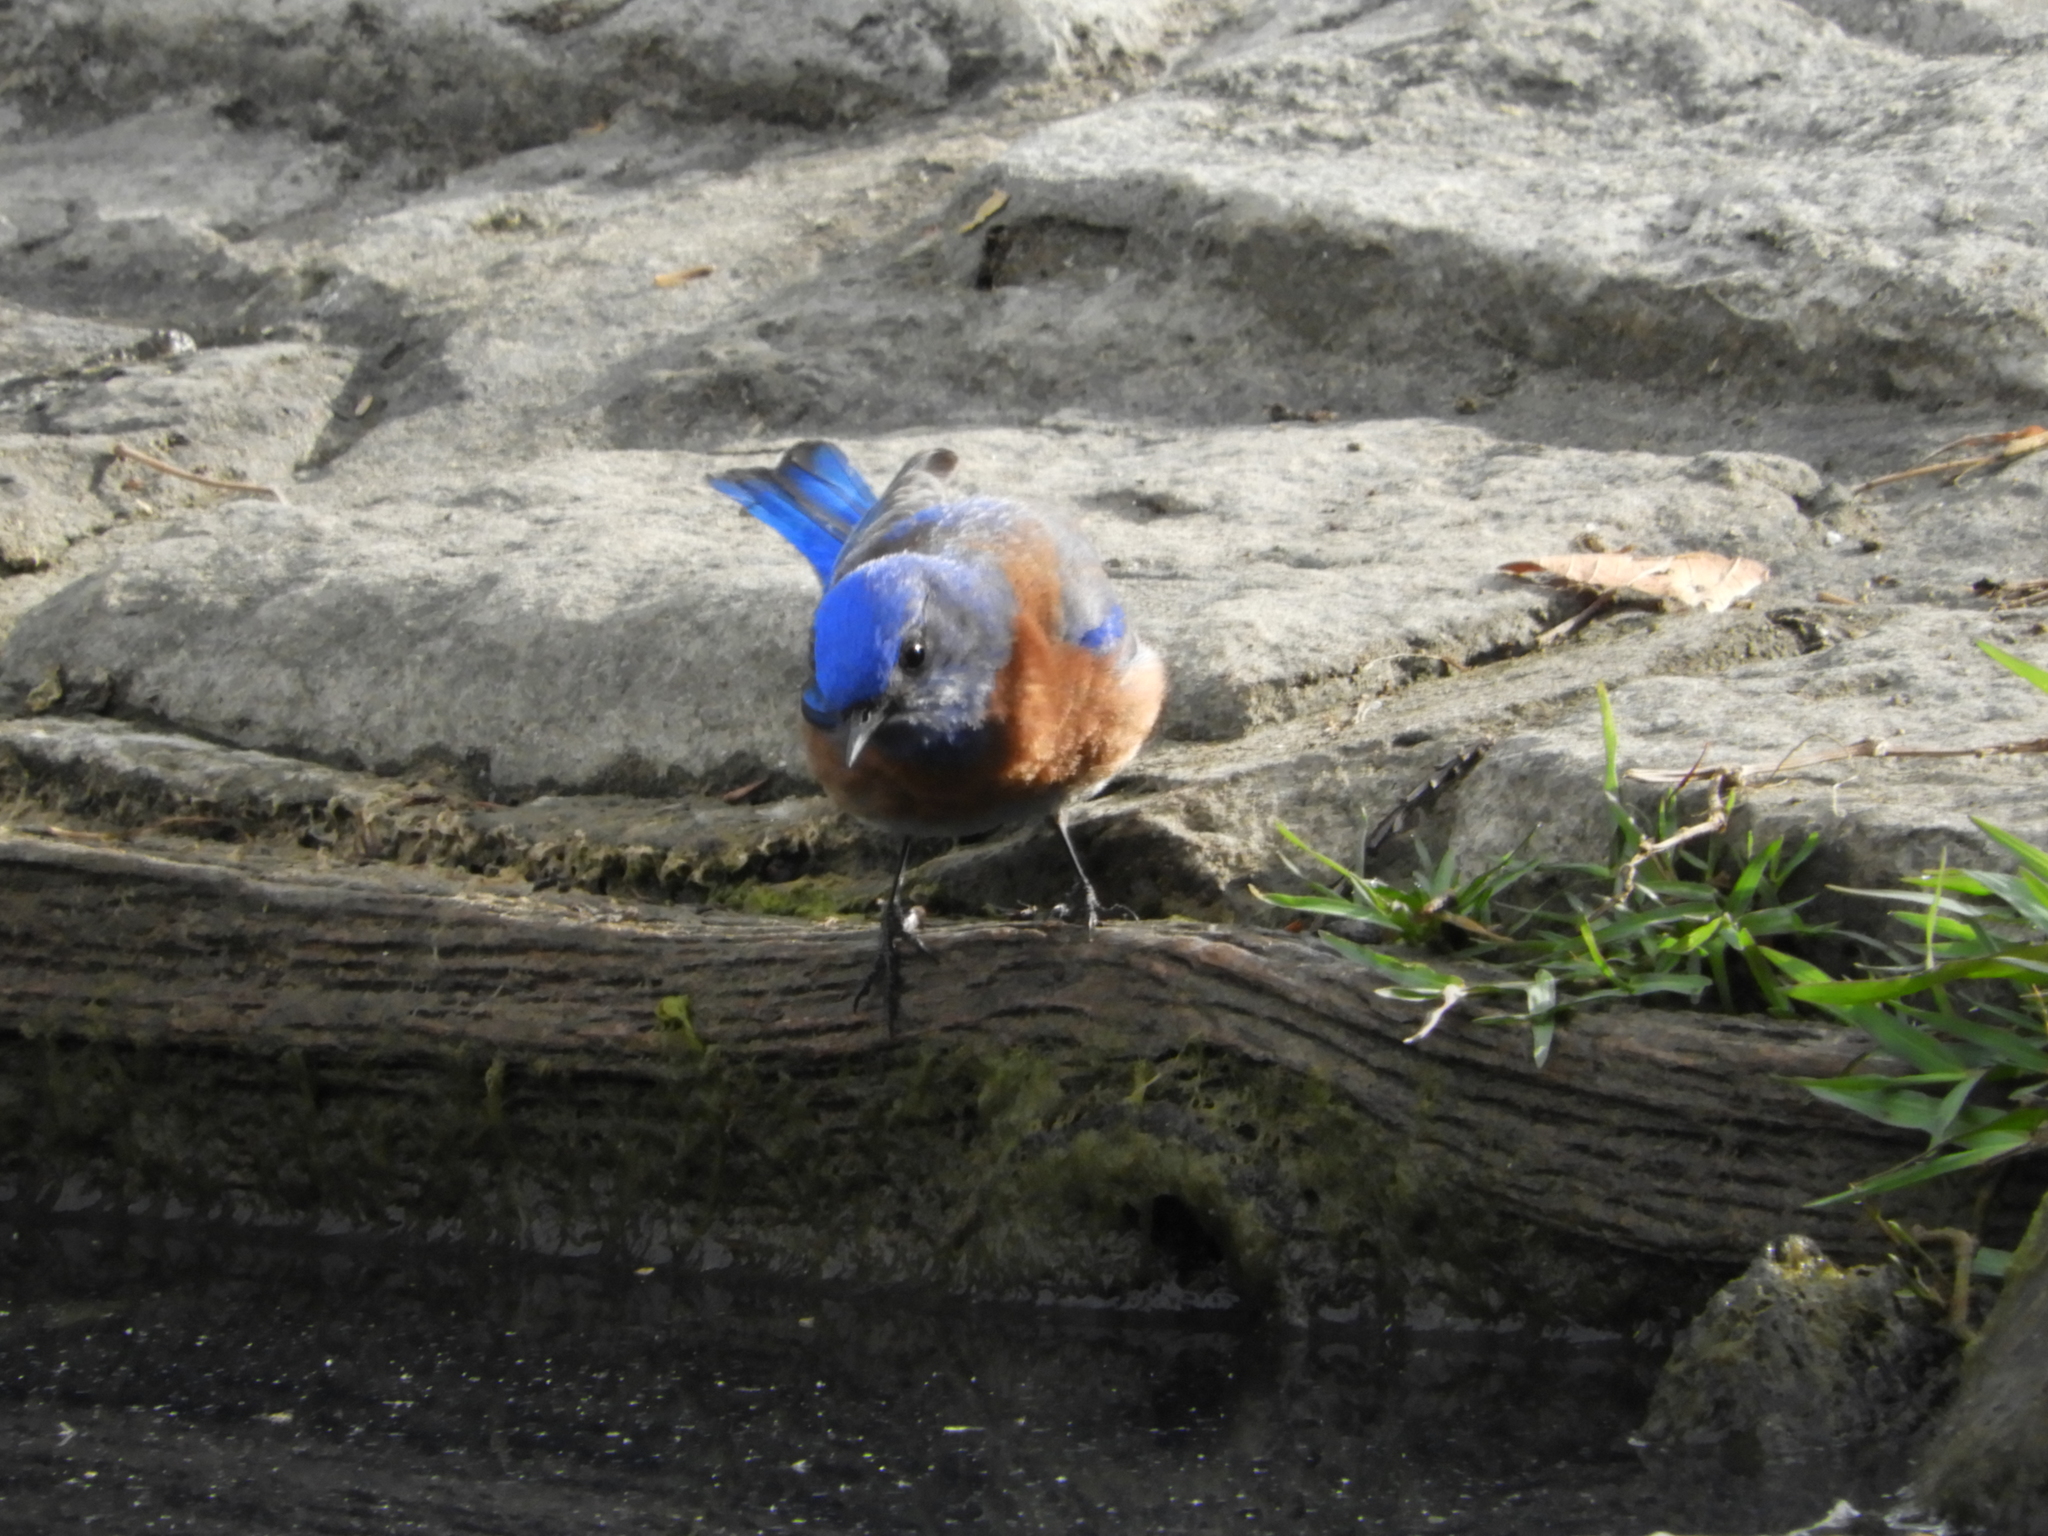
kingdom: Animalia
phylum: Chordata
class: Aves
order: Passeriformes
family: Turdidae
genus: Sialia
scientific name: Sialia mexicana
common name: Western bluebird
